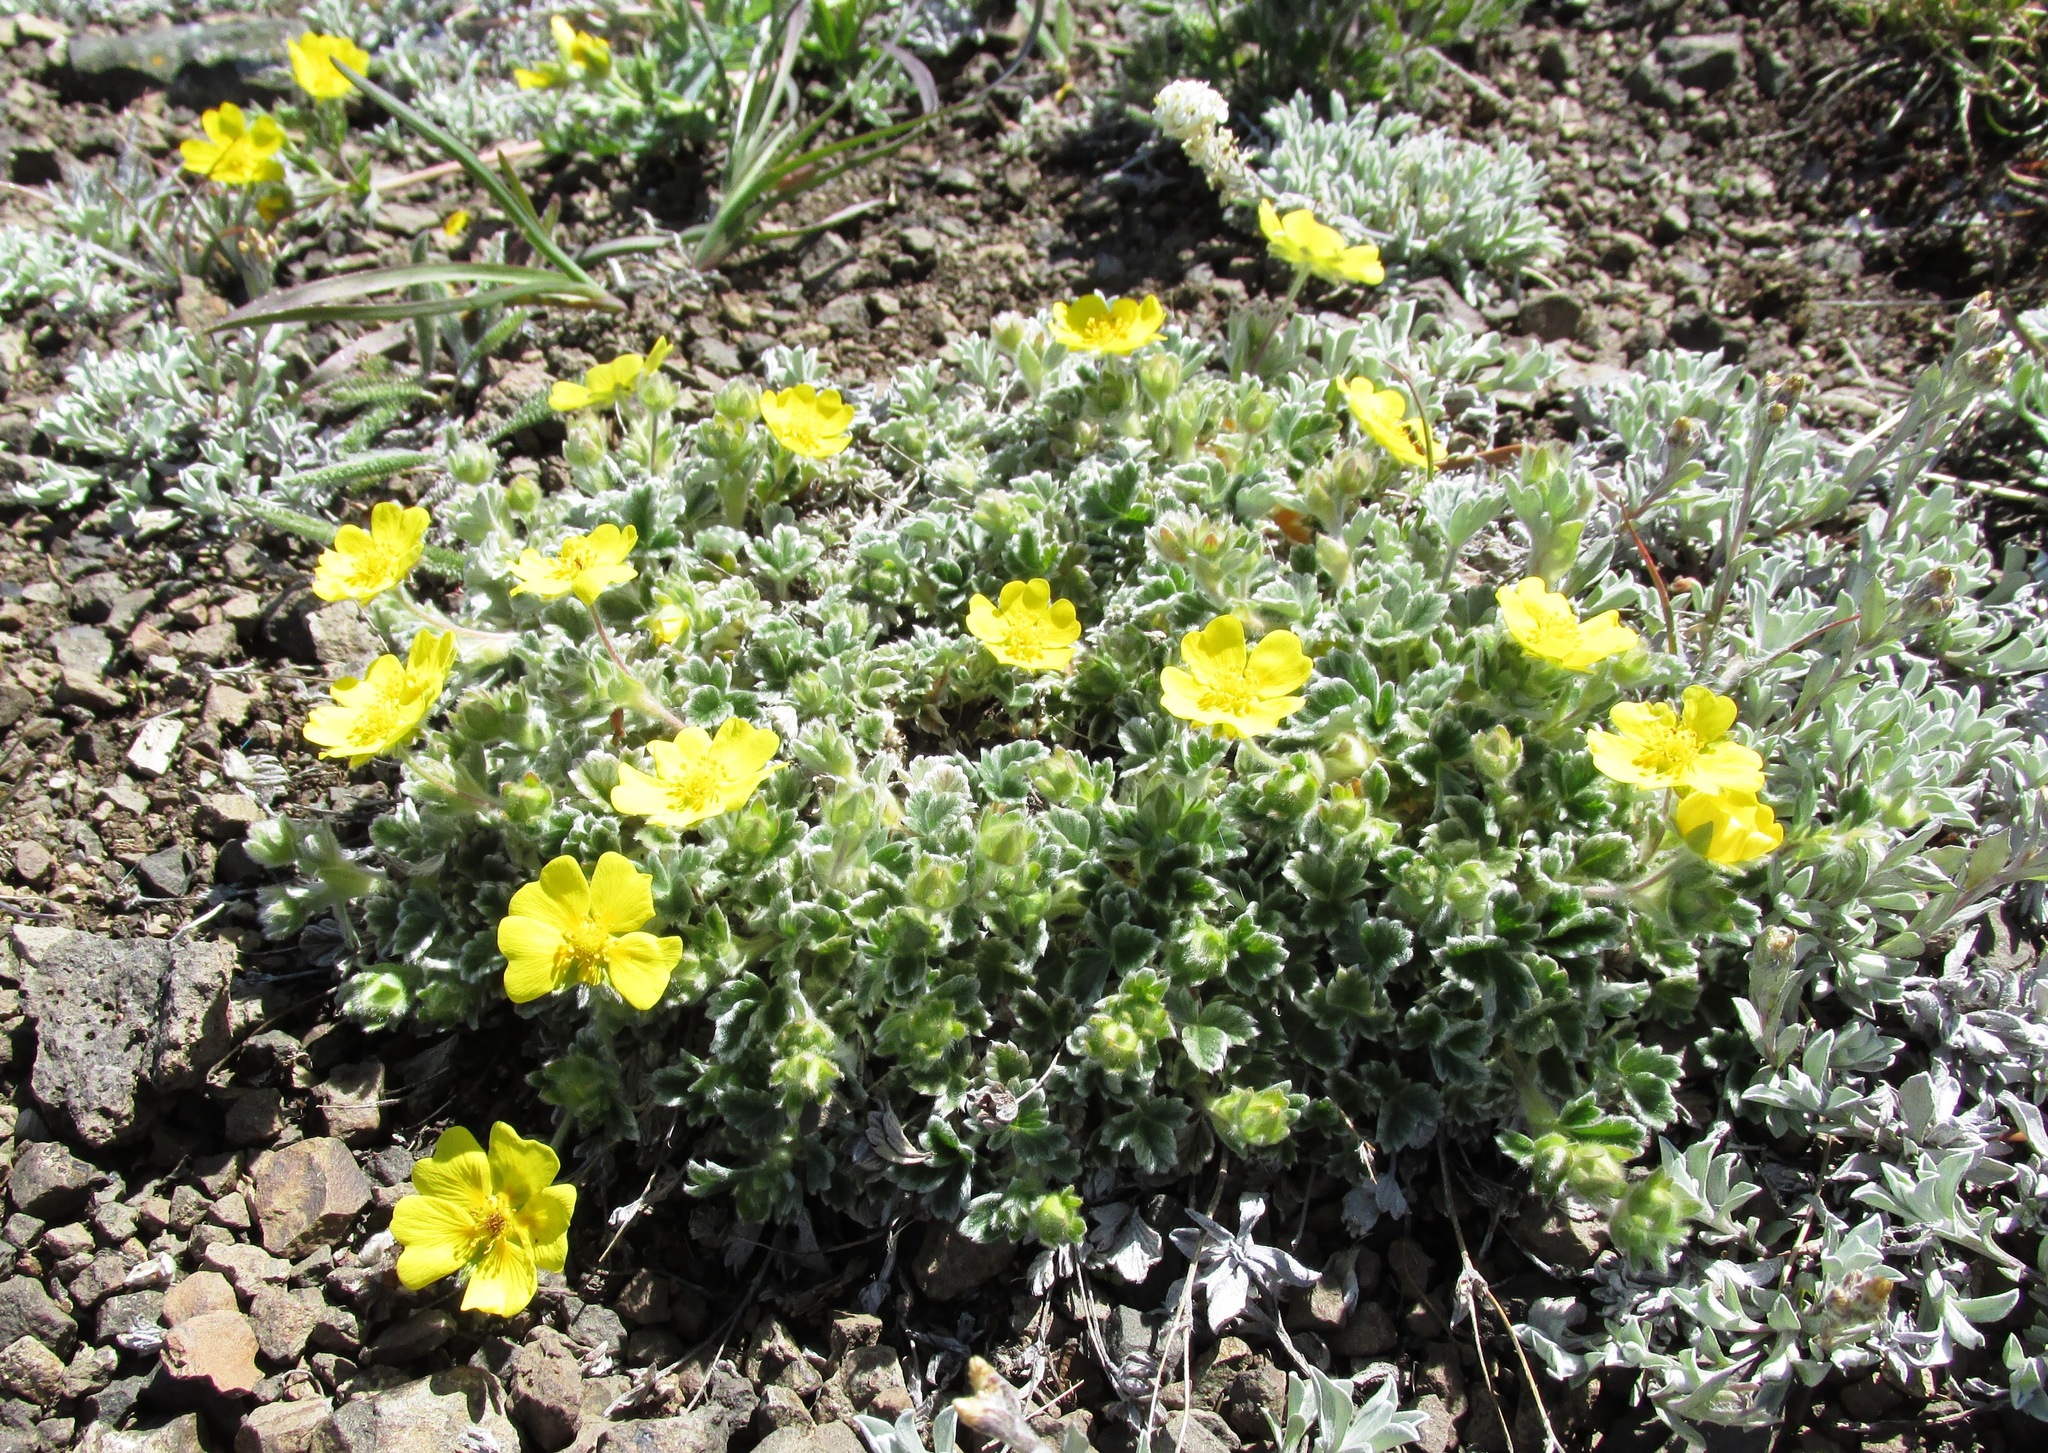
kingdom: Plantae
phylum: Tracheophyta
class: Magnoliopsida
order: Rosales
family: Rosaceae
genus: Potentilla
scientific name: Potentilla villosa
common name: Northern cinquefoil
